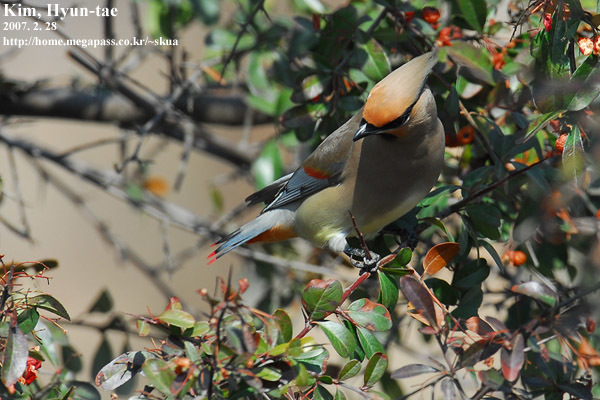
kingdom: Animalia
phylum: Chordata
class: Aves
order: Passeriformes
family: Bombycillidae
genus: Bombycilla
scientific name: Bombycilla japonica
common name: Japanese waxwing
